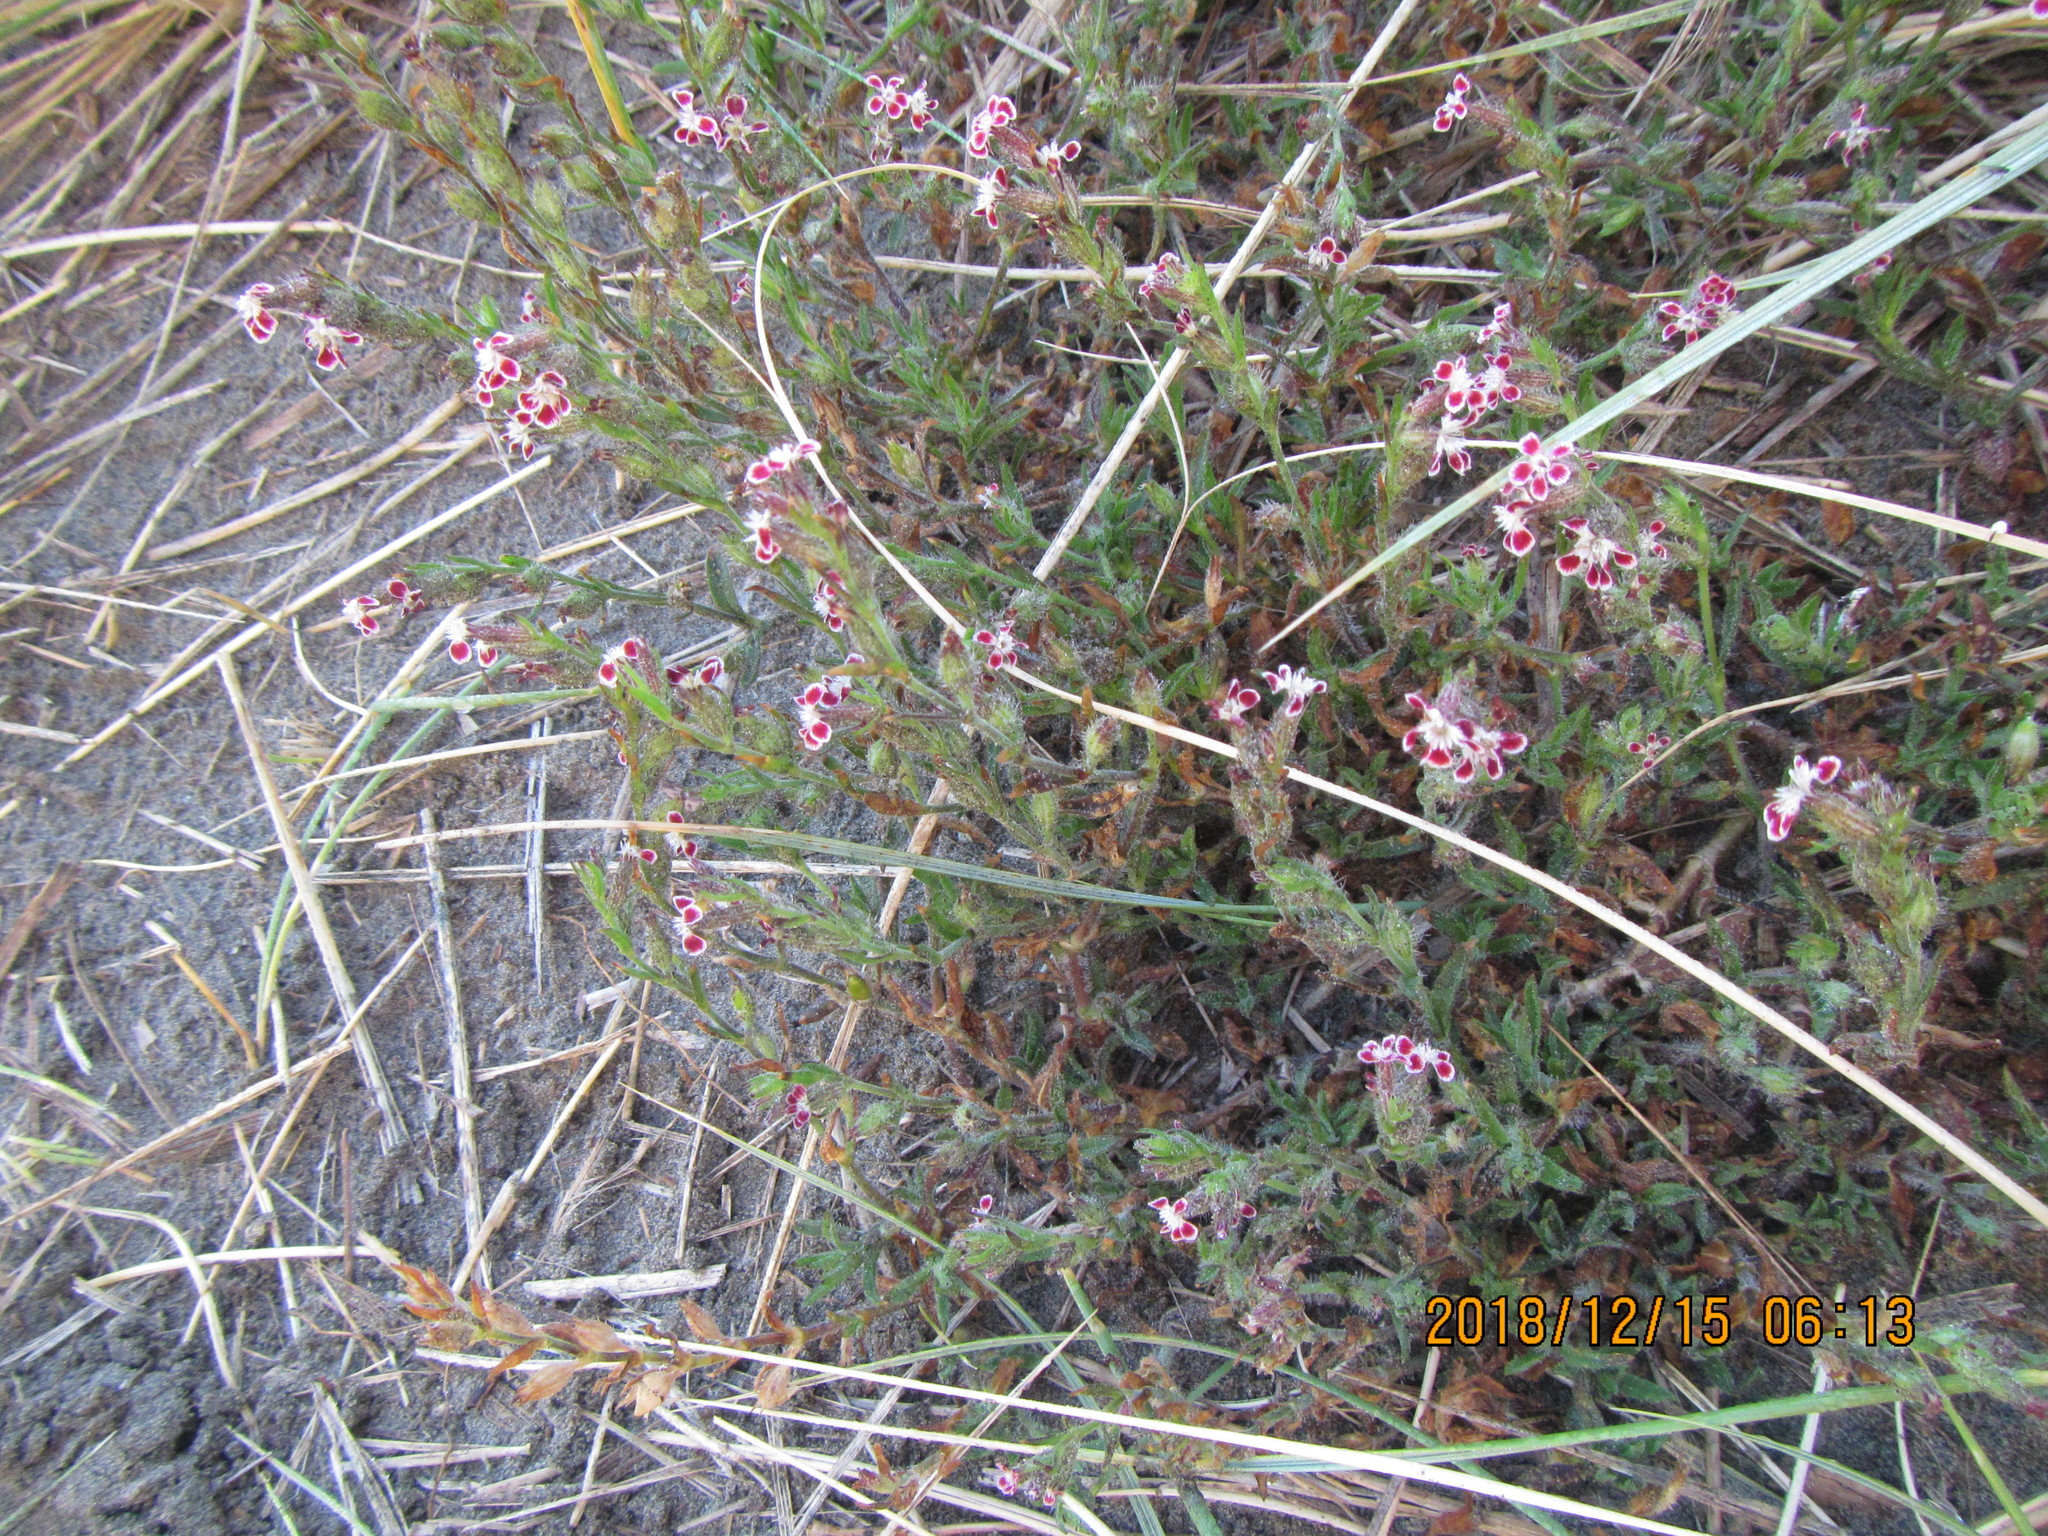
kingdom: Plantae
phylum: Tracheophyta
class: Magnoliopsida
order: Caryophyllales
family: Caryophyllaceae
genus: Silene
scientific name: Silene gallica
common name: Small-flowered catchfly
